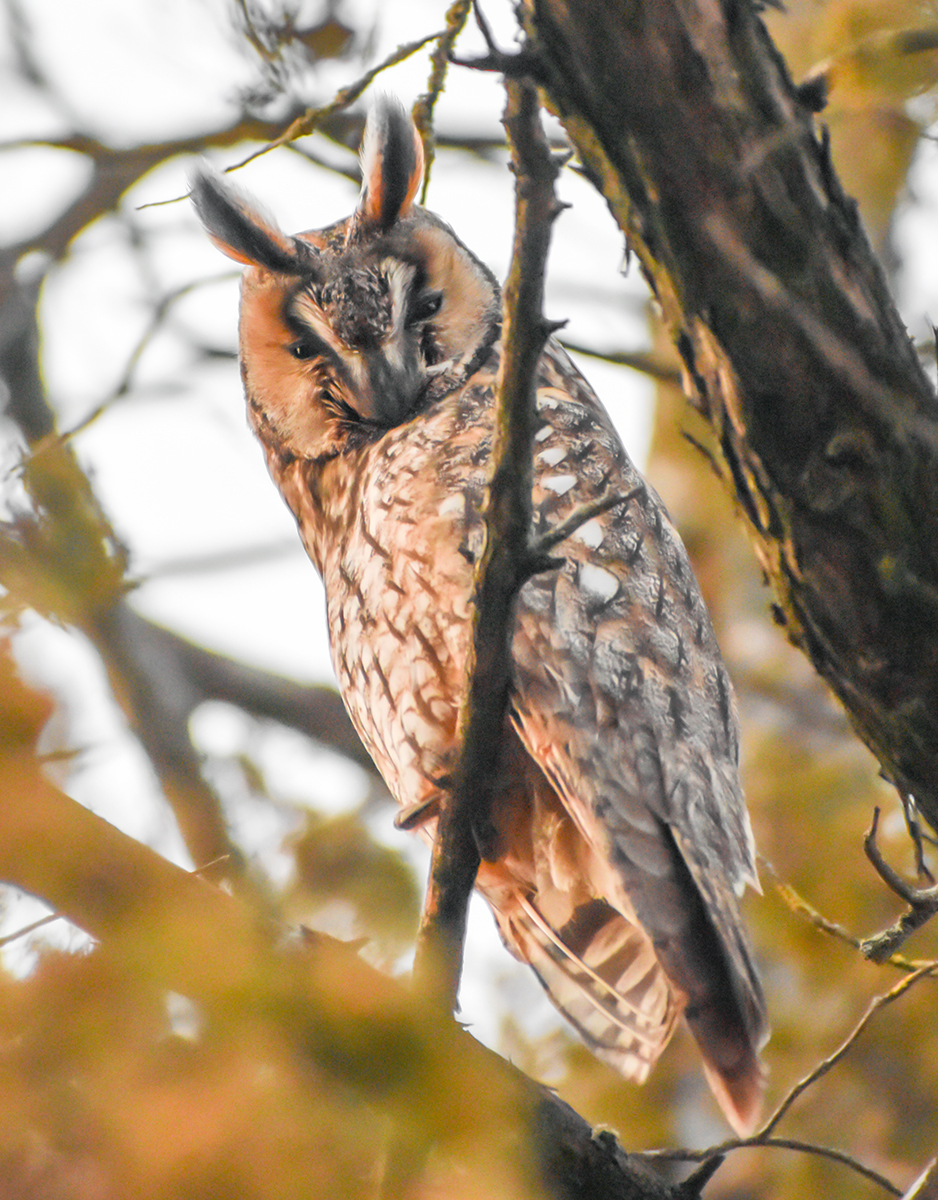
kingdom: Animalia
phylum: Chordata
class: Aves
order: Strigiformes
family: Strigidae
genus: Asio
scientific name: Asio otus
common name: Long-eared owl
